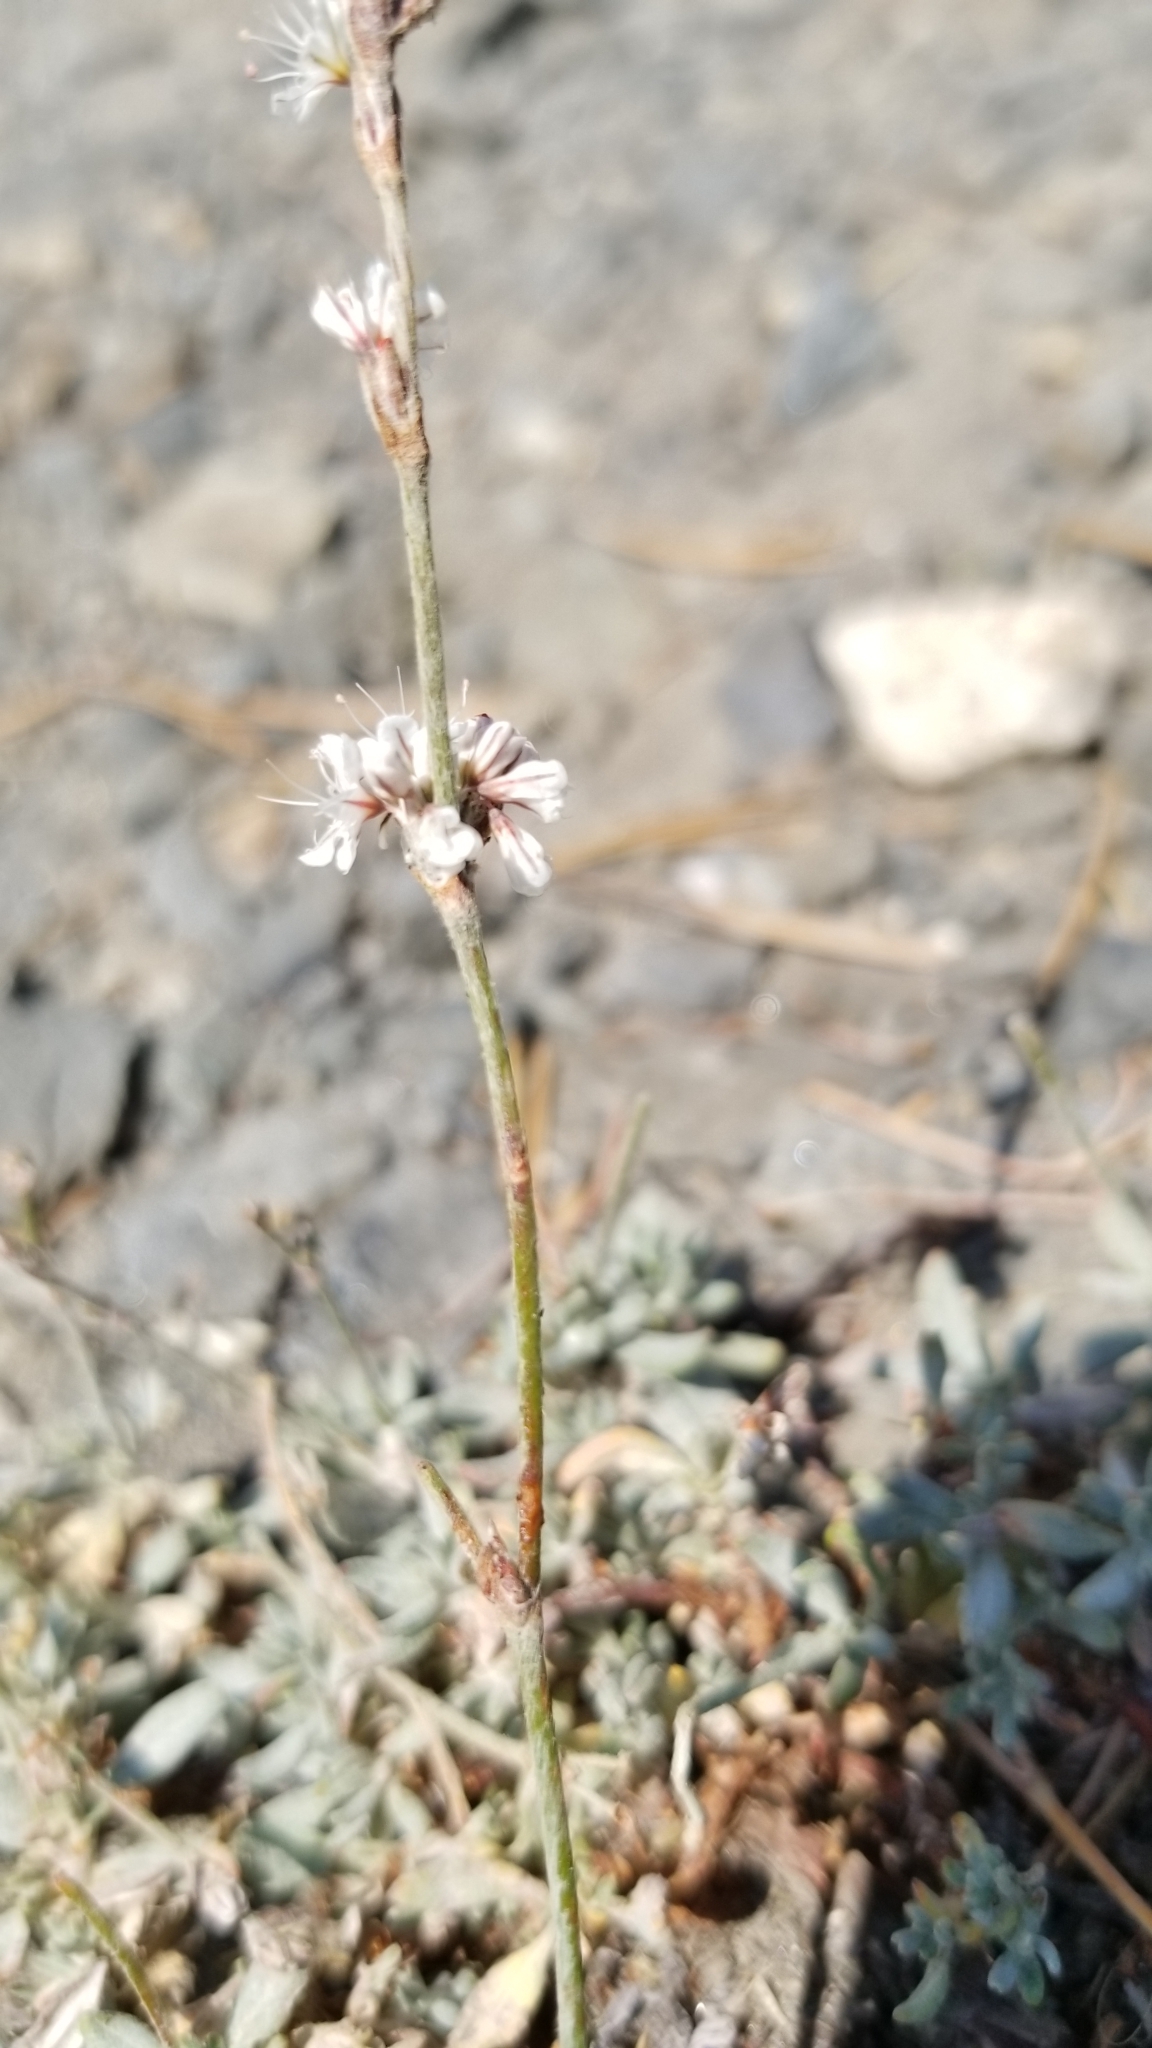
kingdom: Plantae
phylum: Tracheophyta
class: Magnoliopsida
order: Caryophyllales
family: Polygonaceae
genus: Eriogonum
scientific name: Eriogonum wrightii
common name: Bastard-sage
